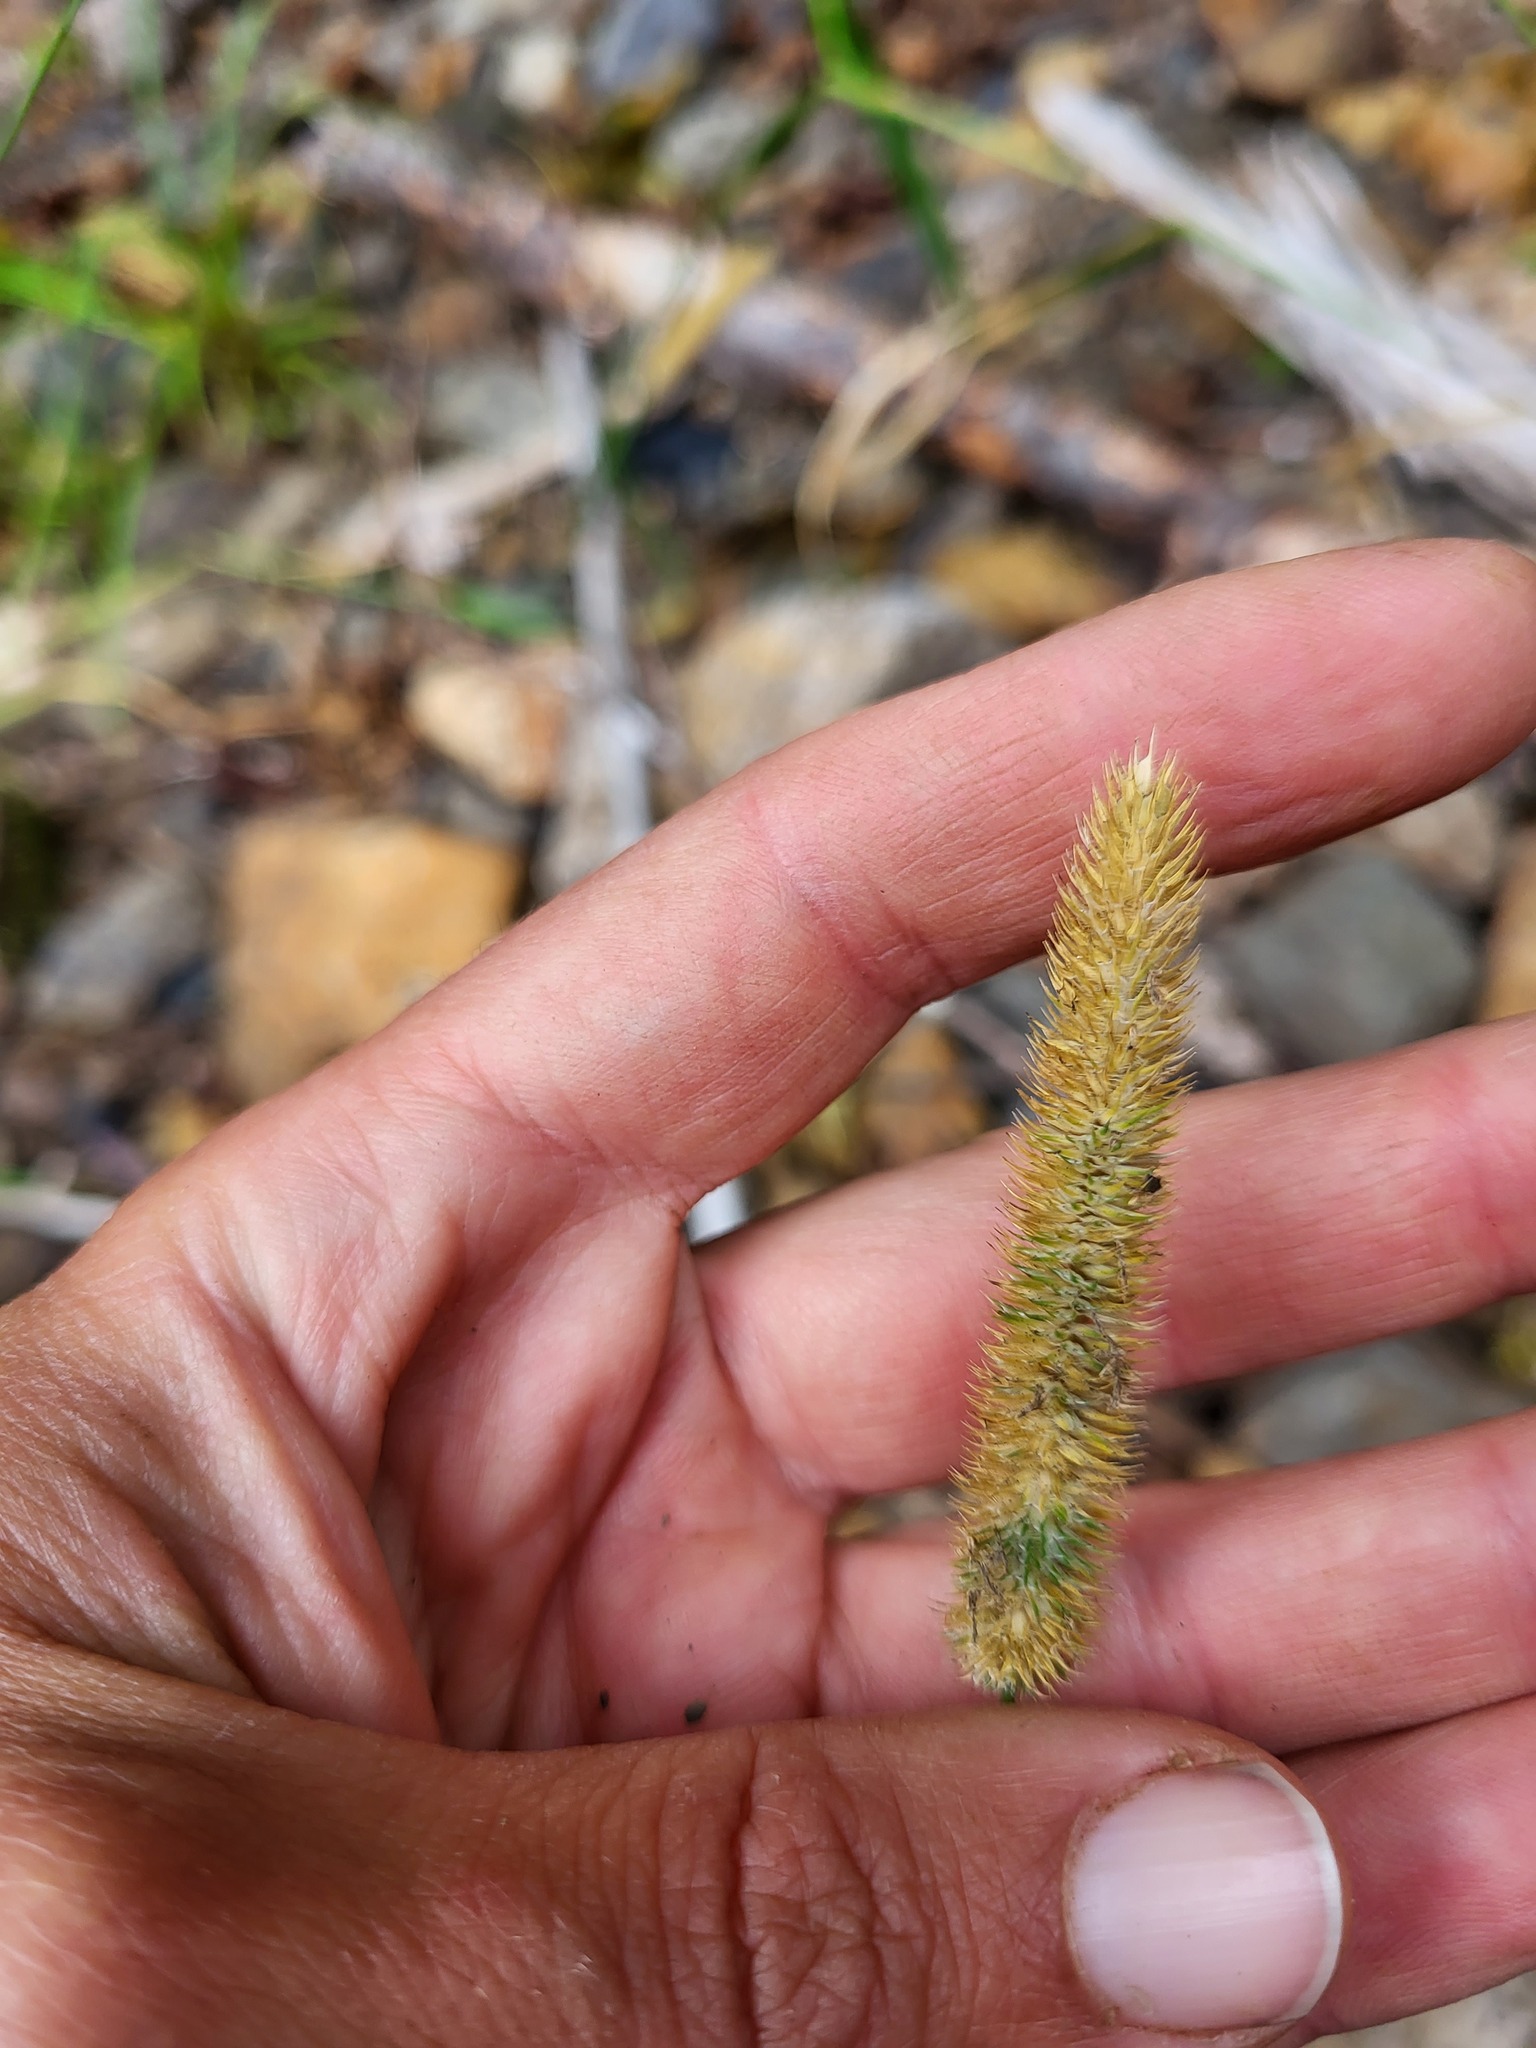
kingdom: Plantae
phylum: Tracheophyta
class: Liliopsida
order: Poales
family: Poaceae
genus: Phleum
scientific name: Phleum pratense
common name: Timothy grass
